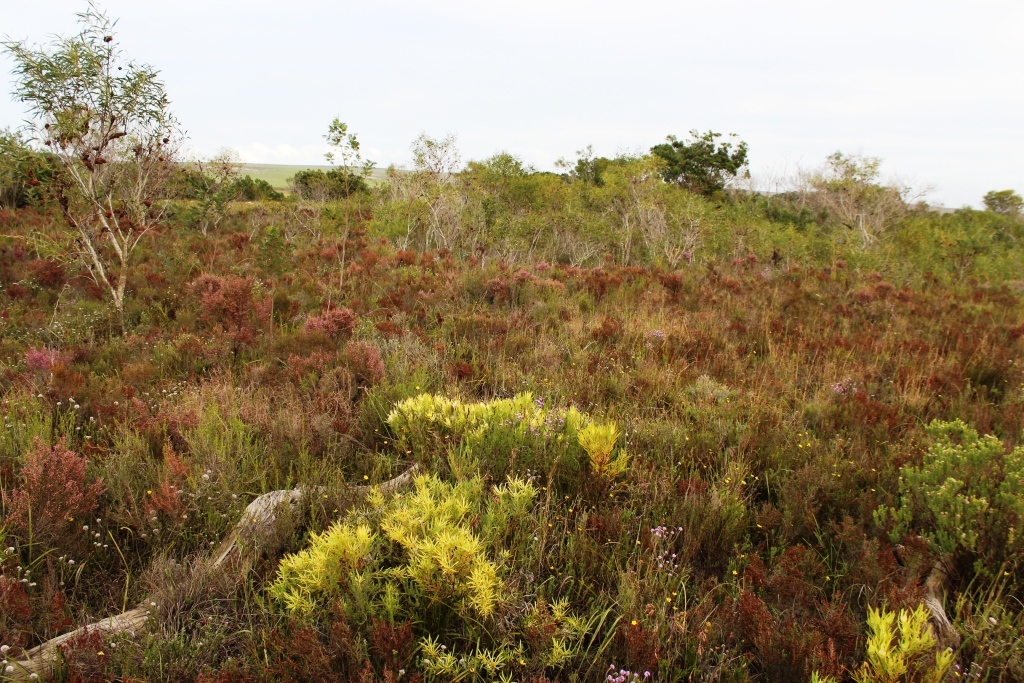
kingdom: Plantae
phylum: Tracheophyta
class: Magnoliopsida
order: Proteales
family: Proteaceae
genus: Leucadendron
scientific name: Leucadendron salignum
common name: Common sunshine conebush
